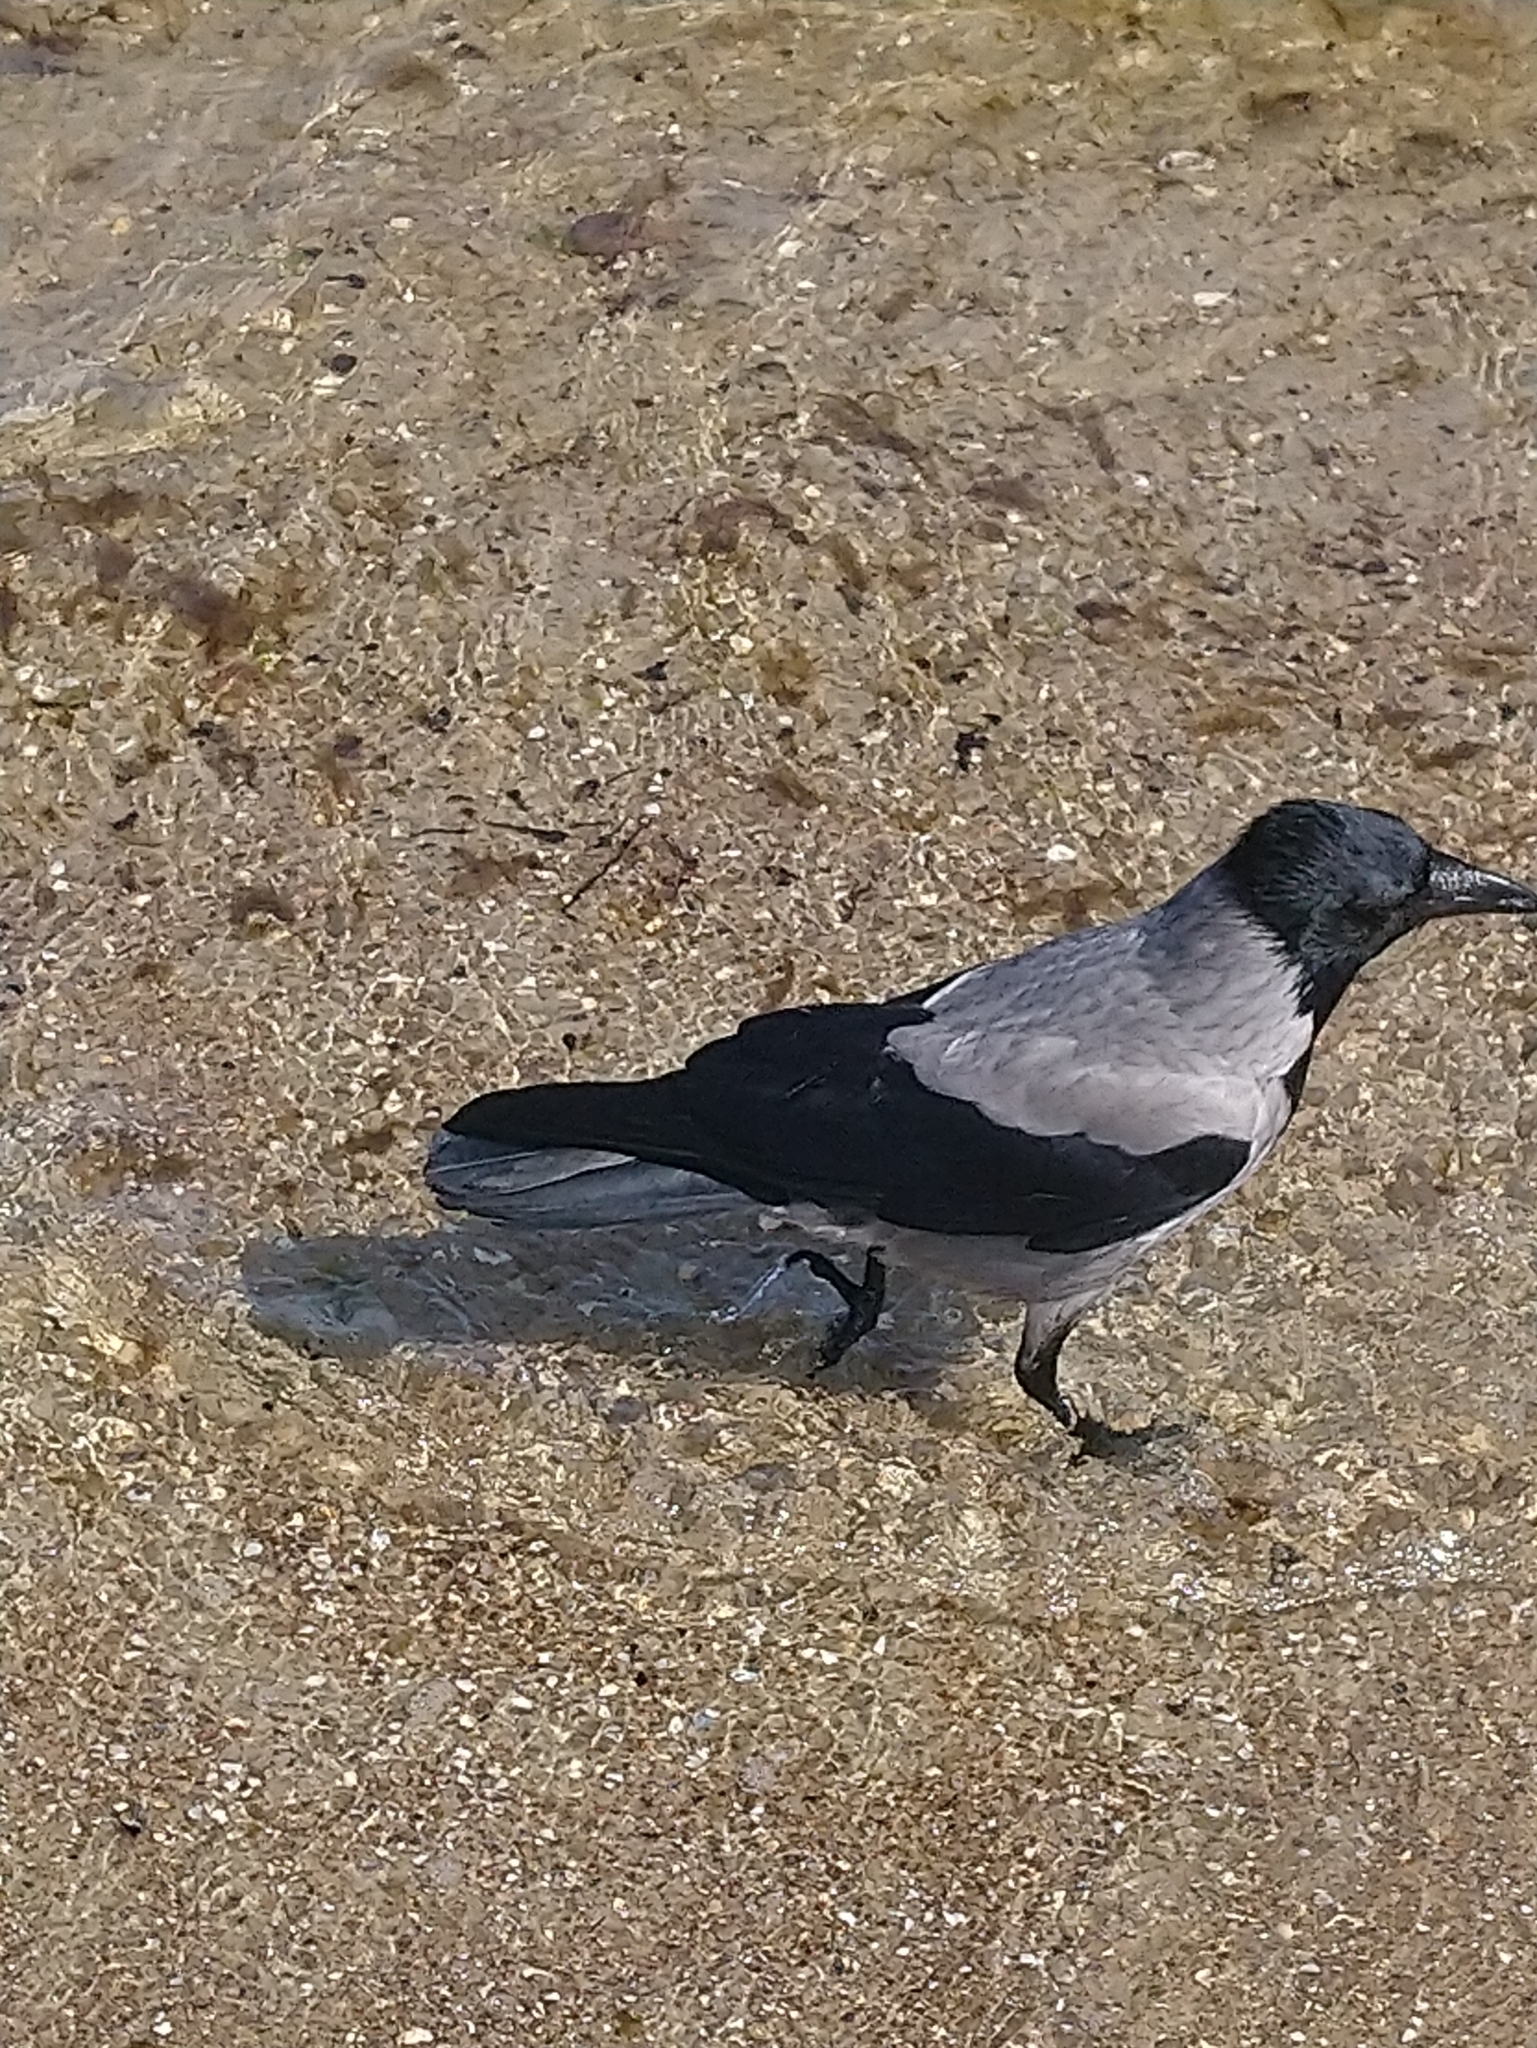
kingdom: Animalia
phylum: Chordata
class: Aves
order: Passeriformes
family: Corvidae
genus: Corvus
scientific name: Corvus cornix
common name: Hooded crow
